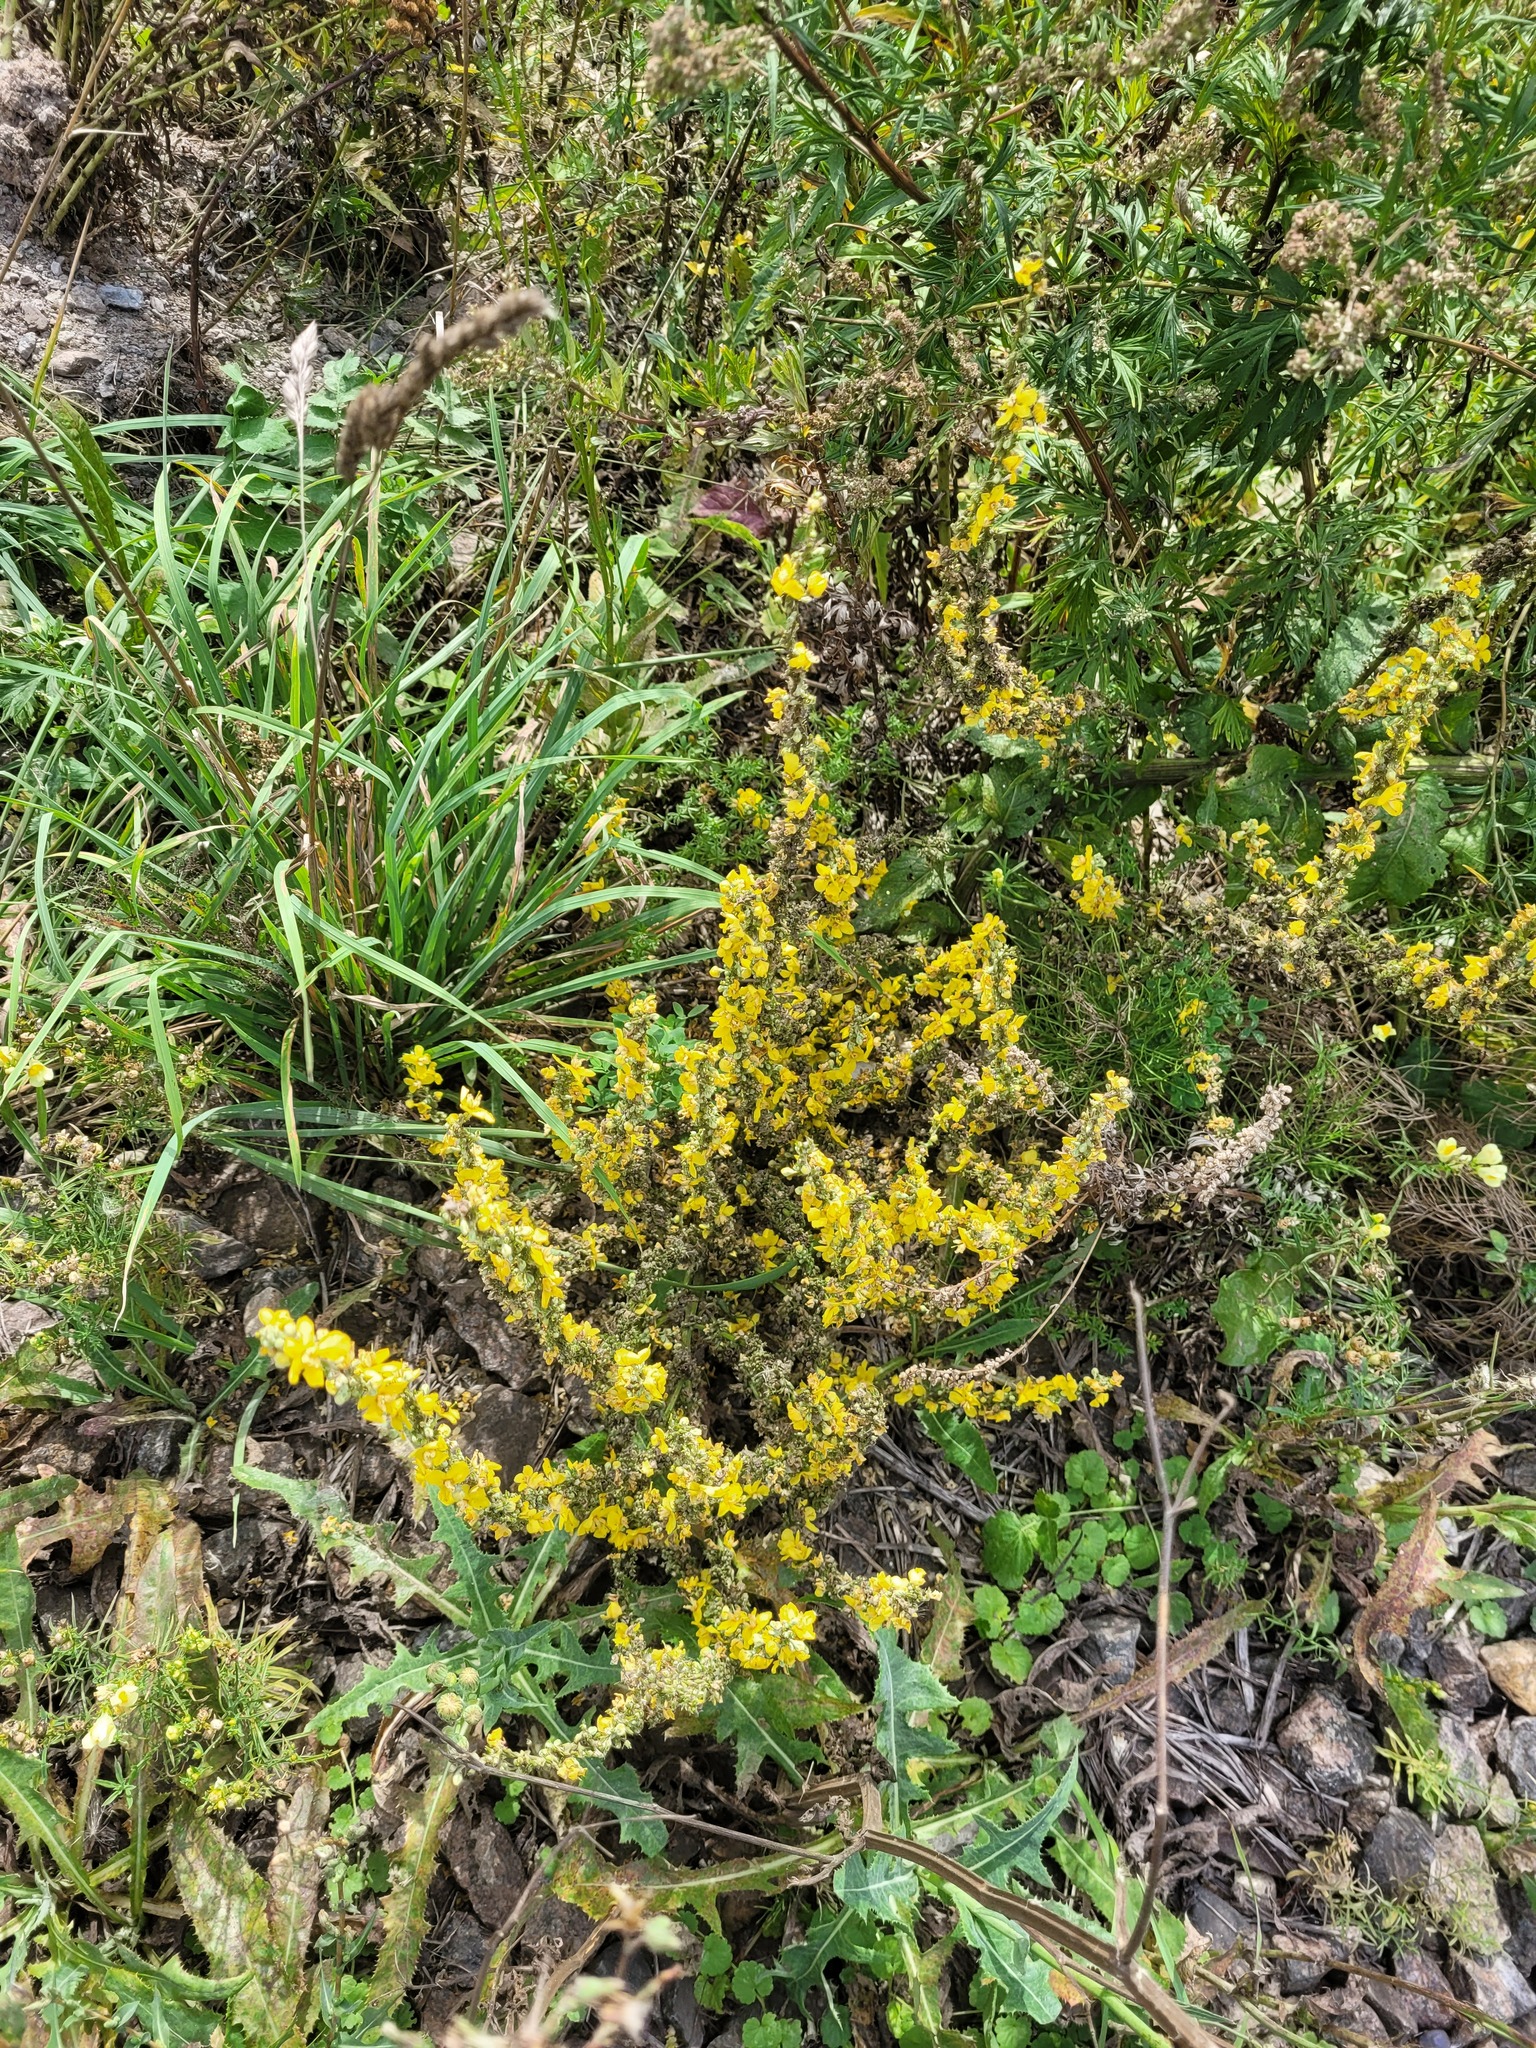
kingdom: Plantae
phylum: Tracheophyta
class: Magnoliopsida
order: Lamiales
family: Scrophulariaceae
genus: Verbascum
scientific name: Verbascum lychnitis
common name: White mullein
